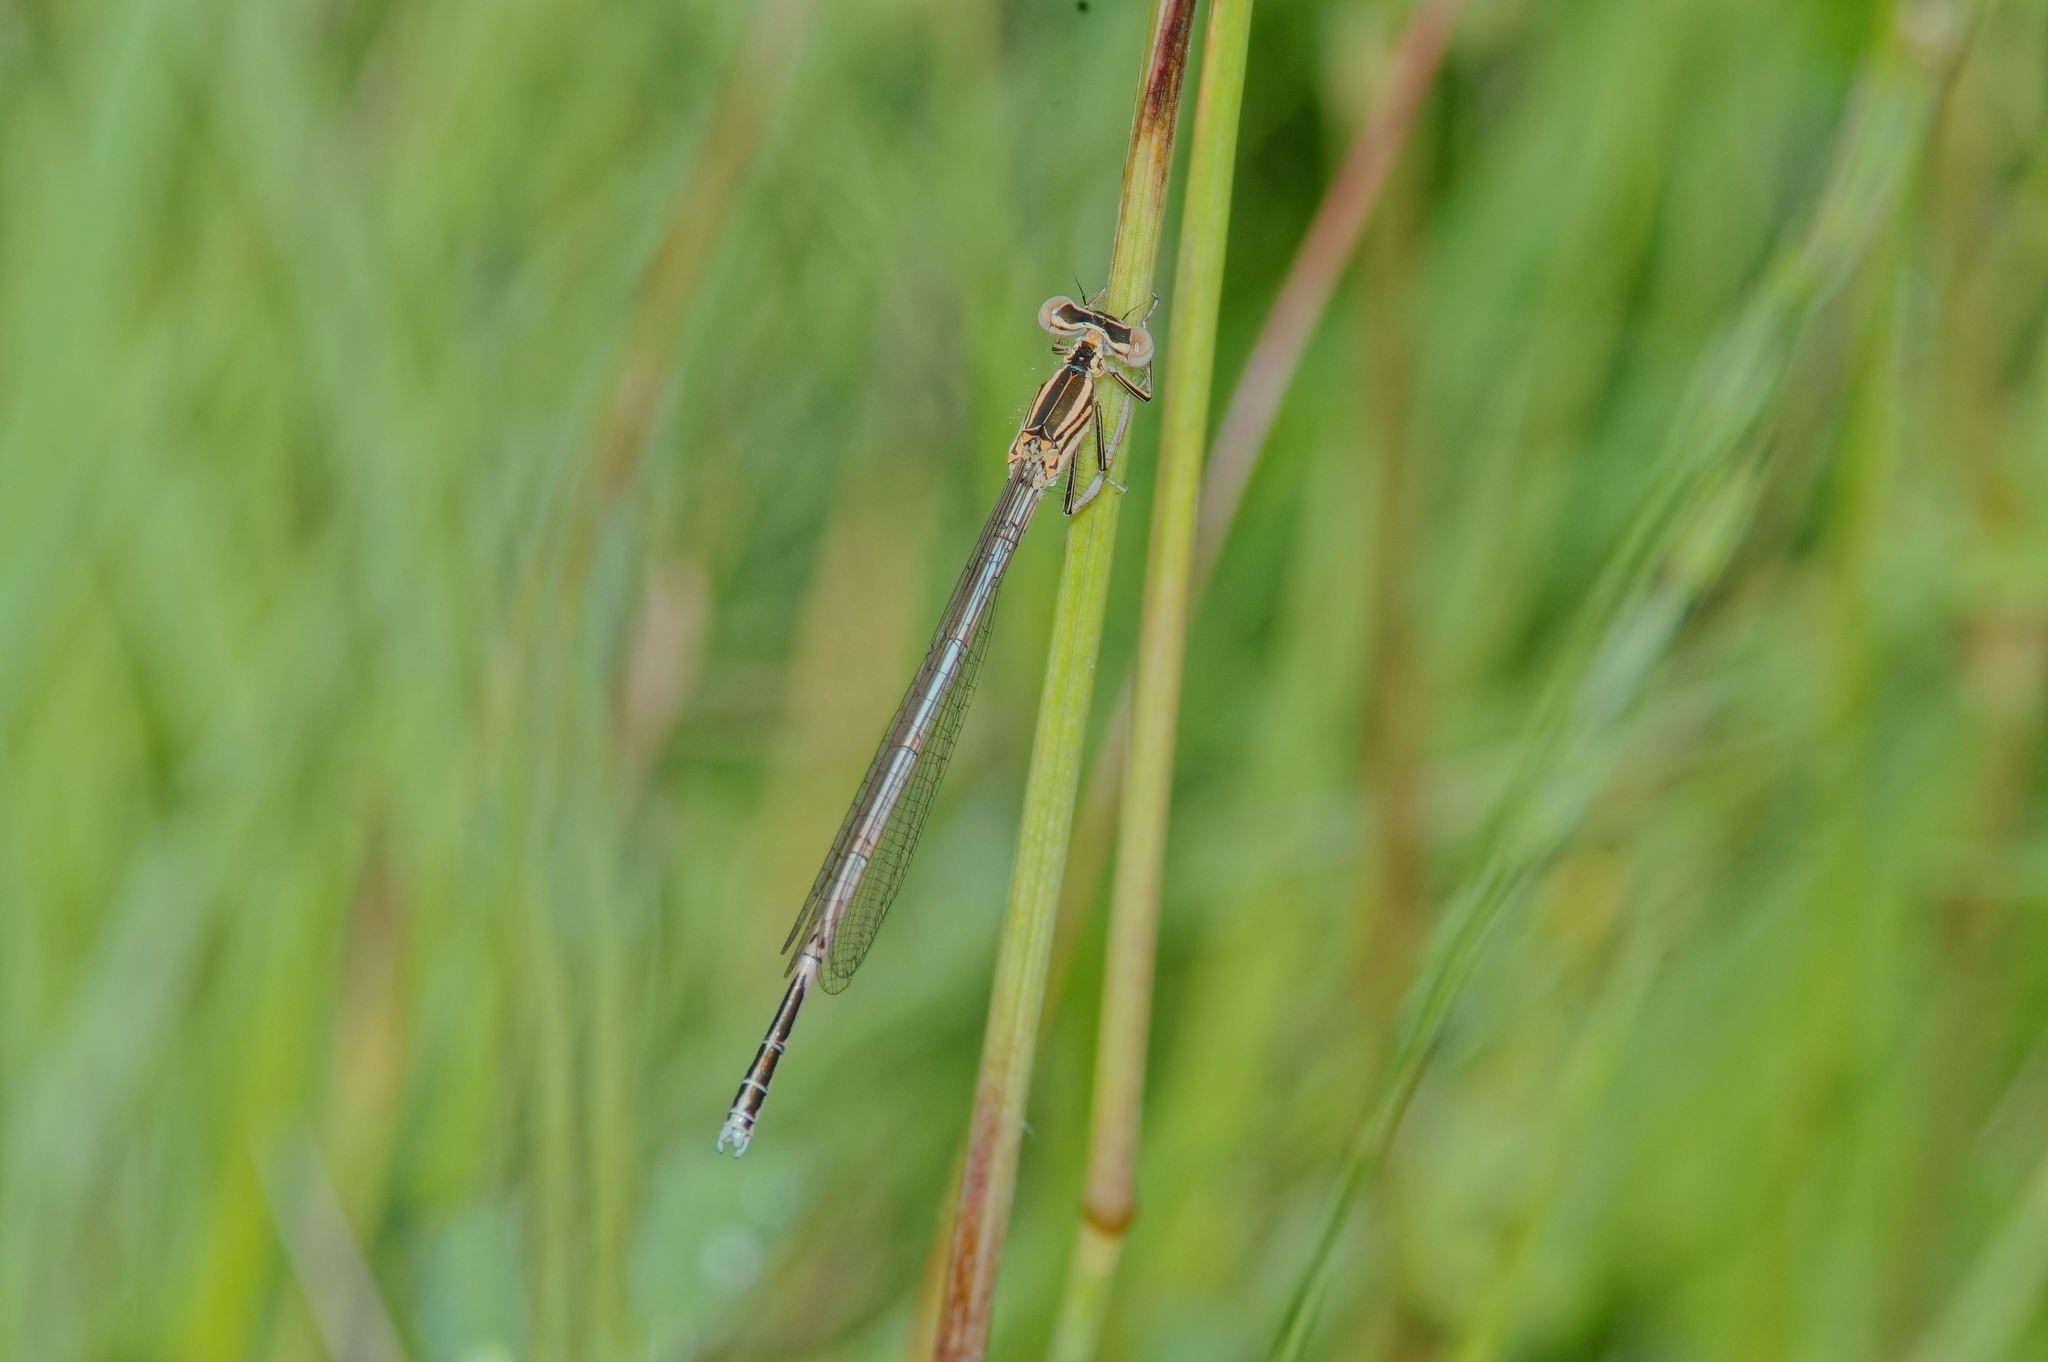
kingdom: Animalia
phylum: Arthropoda
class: Insecta
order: Odonata
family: Platycnemididae
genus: Platycnemis
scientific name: Platycnemis pennipes
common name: White-legged damselfly
